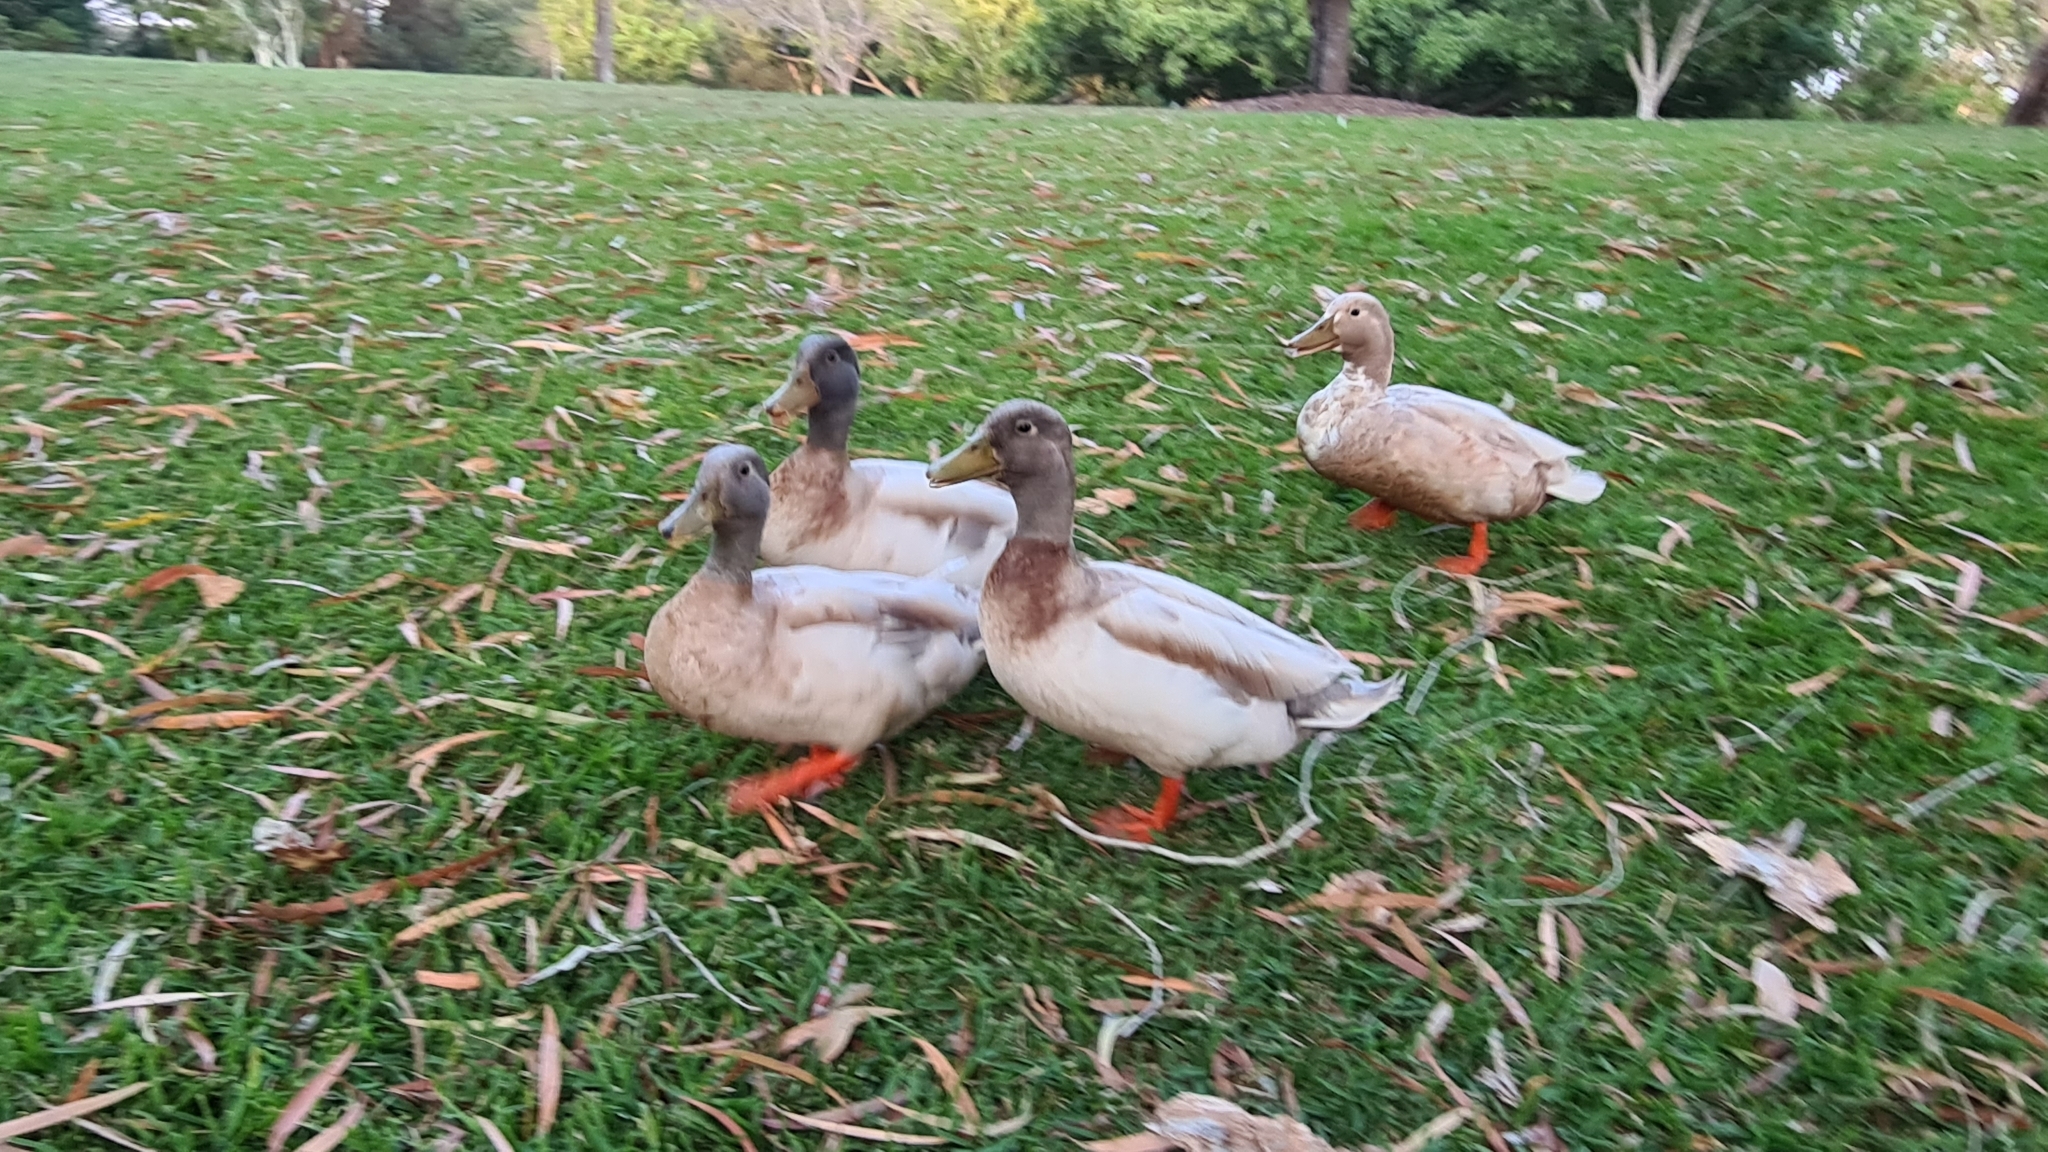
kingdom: Animalia
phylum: Chordata
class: Aves
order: Anseriformes
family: Anatidae
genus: Anas
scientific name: Anas platyrhynchos
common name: Mallard
